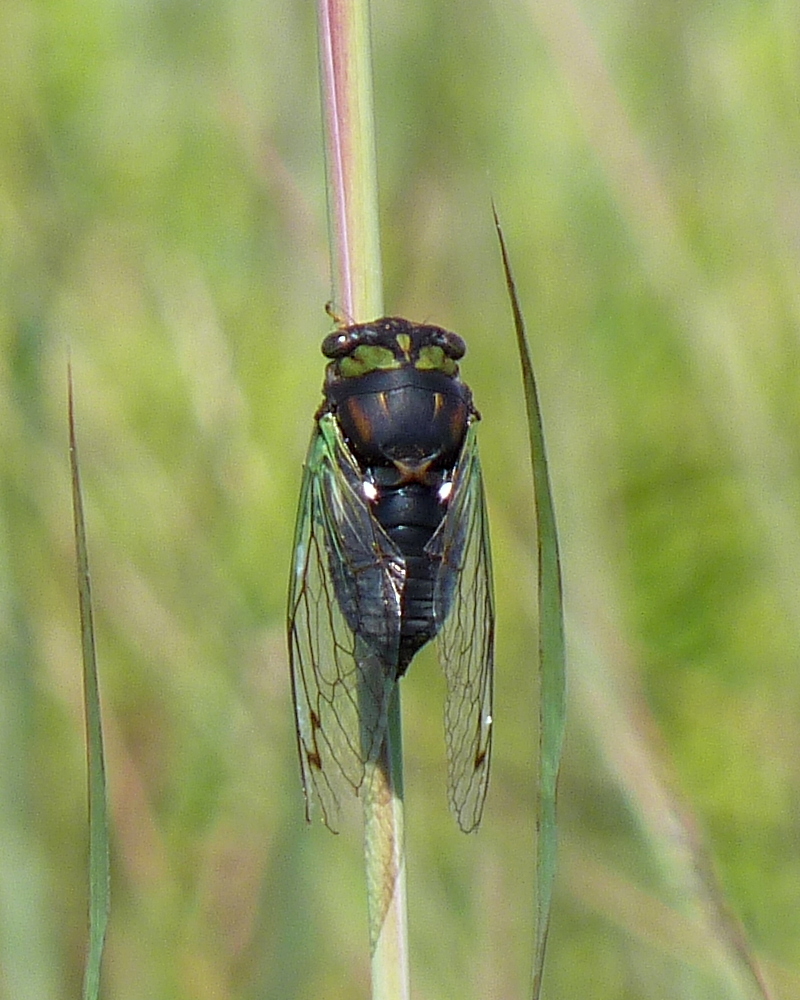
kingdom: Animalia
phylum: Arthropoda
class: Insecta
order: Hemiptera
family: Cicadidae
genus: Neotibicen
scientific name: Neotibicen tibicen
